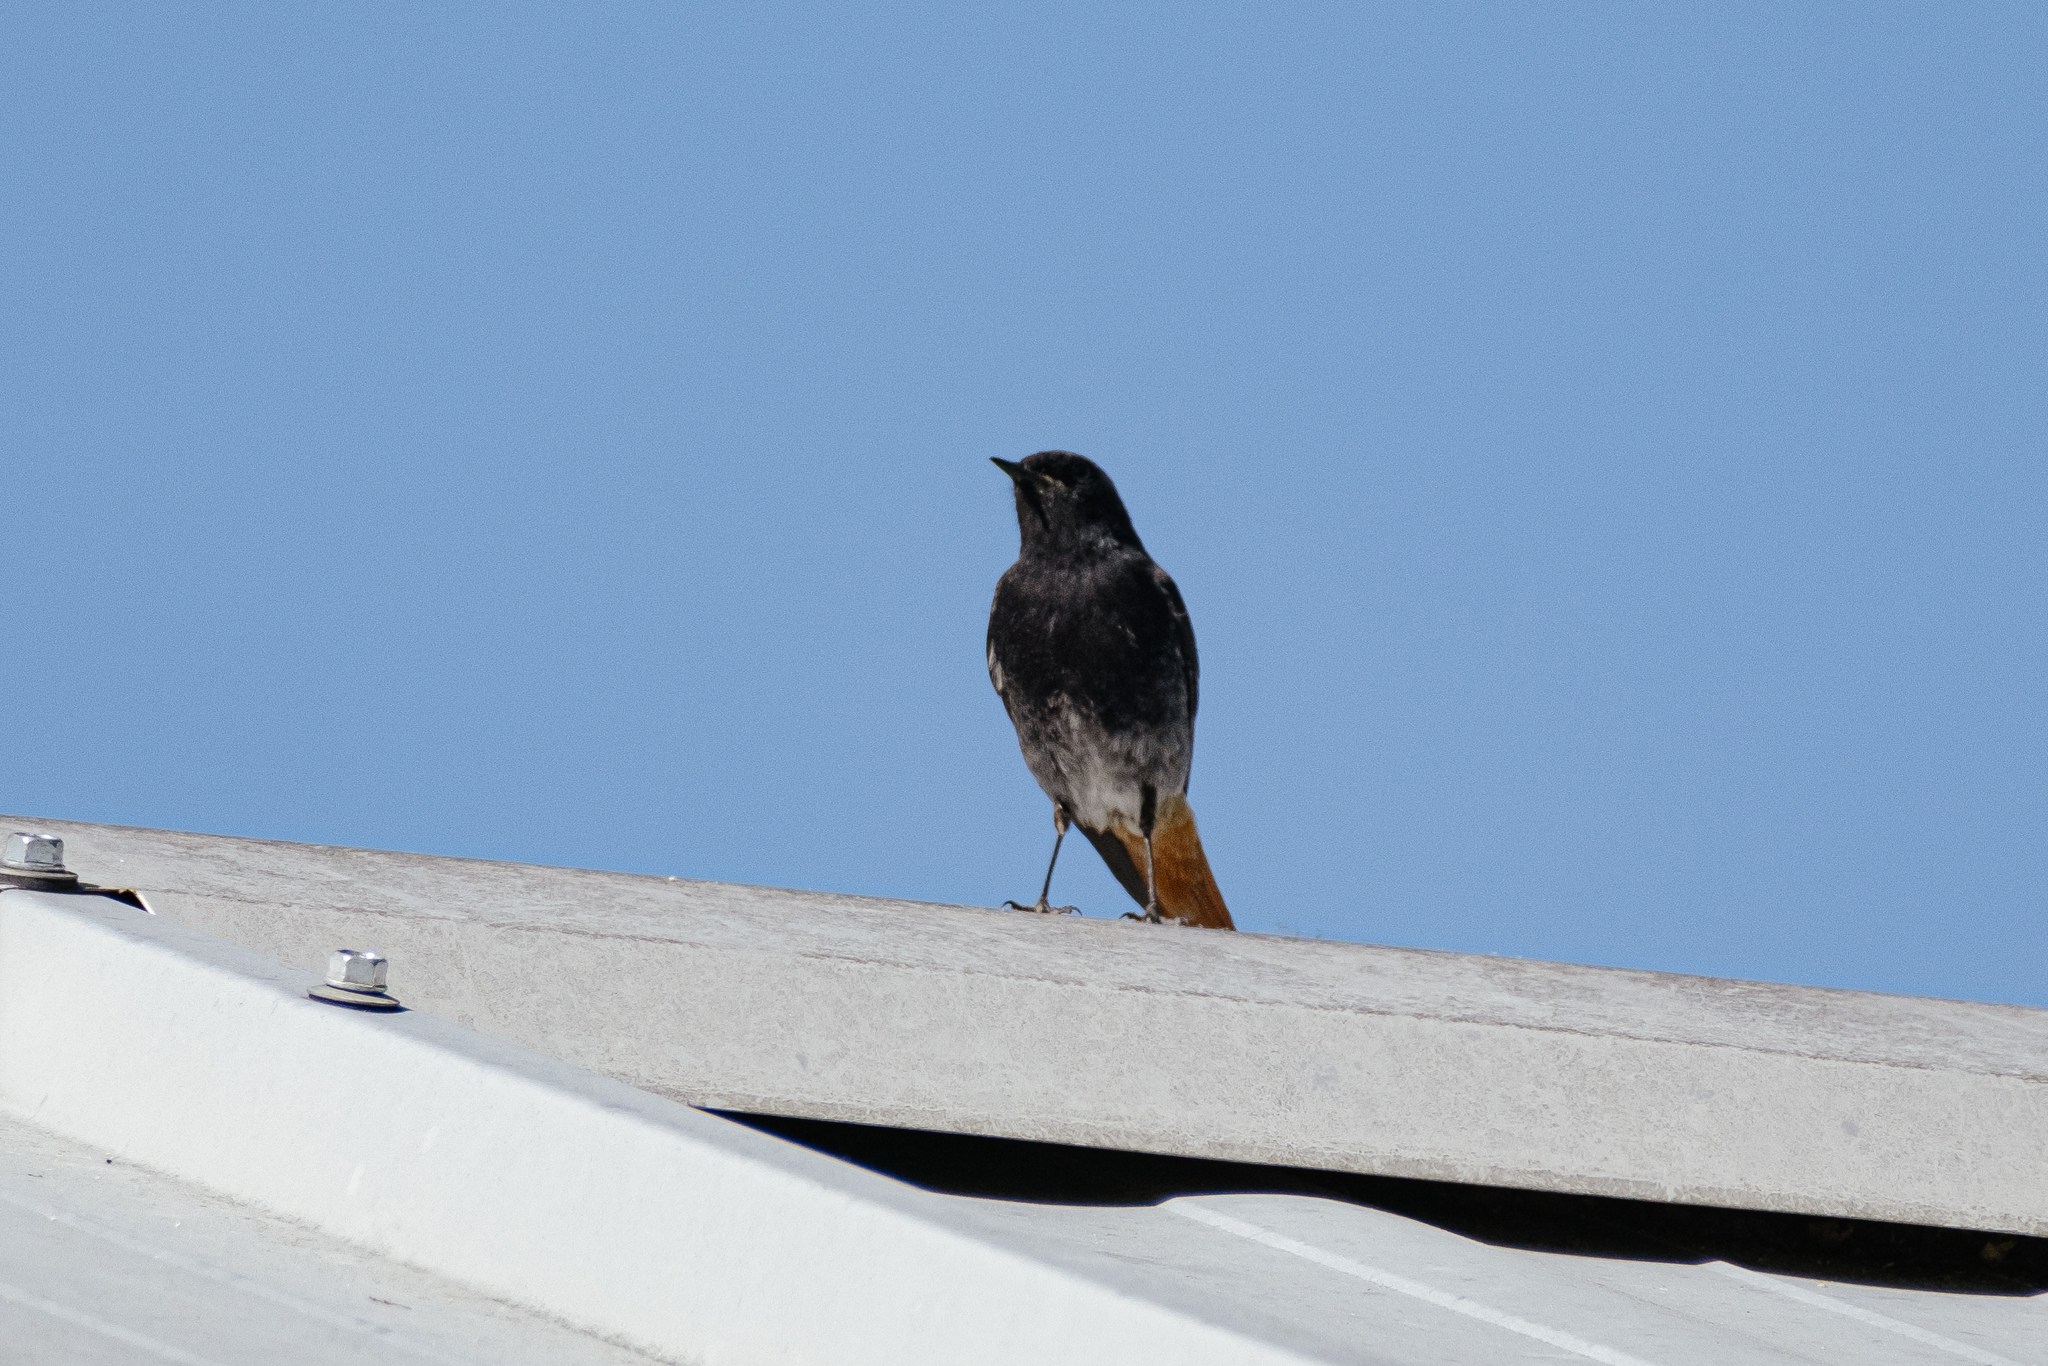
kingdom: Animalia
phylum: Chordata
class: Aves
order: Passeriformes
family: Muscicapidae
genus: Phoenicurus
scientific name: Phoenicurus ochruros
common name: Black redstart
